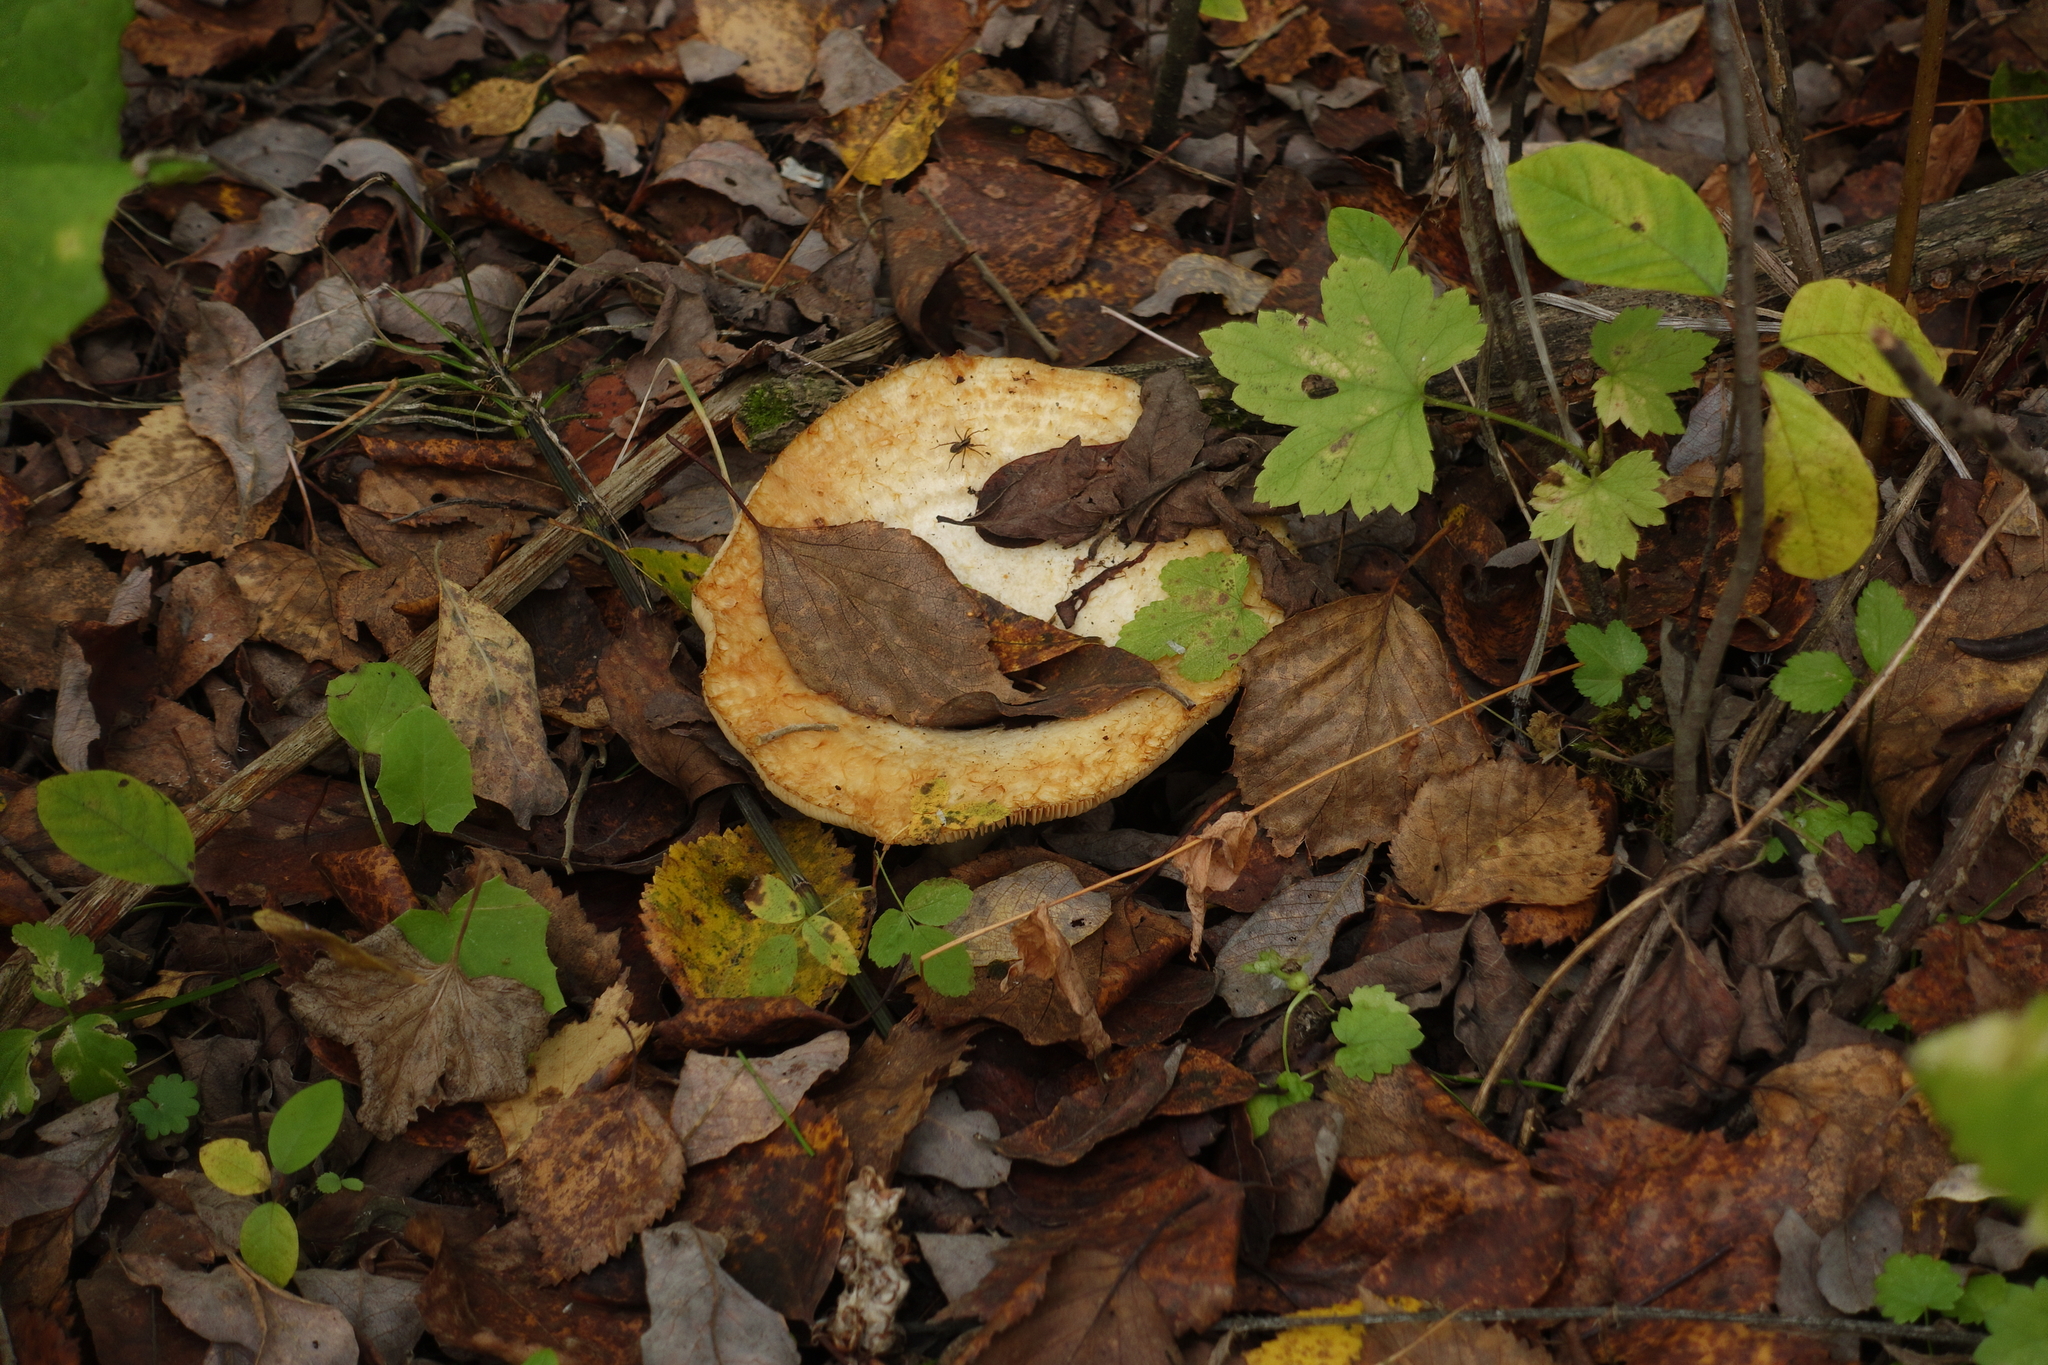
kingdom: Fungi
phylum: Basidiomycota
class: Agaricomycetes
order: Russulales
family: Russulaceae
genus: Lactarius
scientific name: Lactarius resimus
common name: Rollrim milkcap
